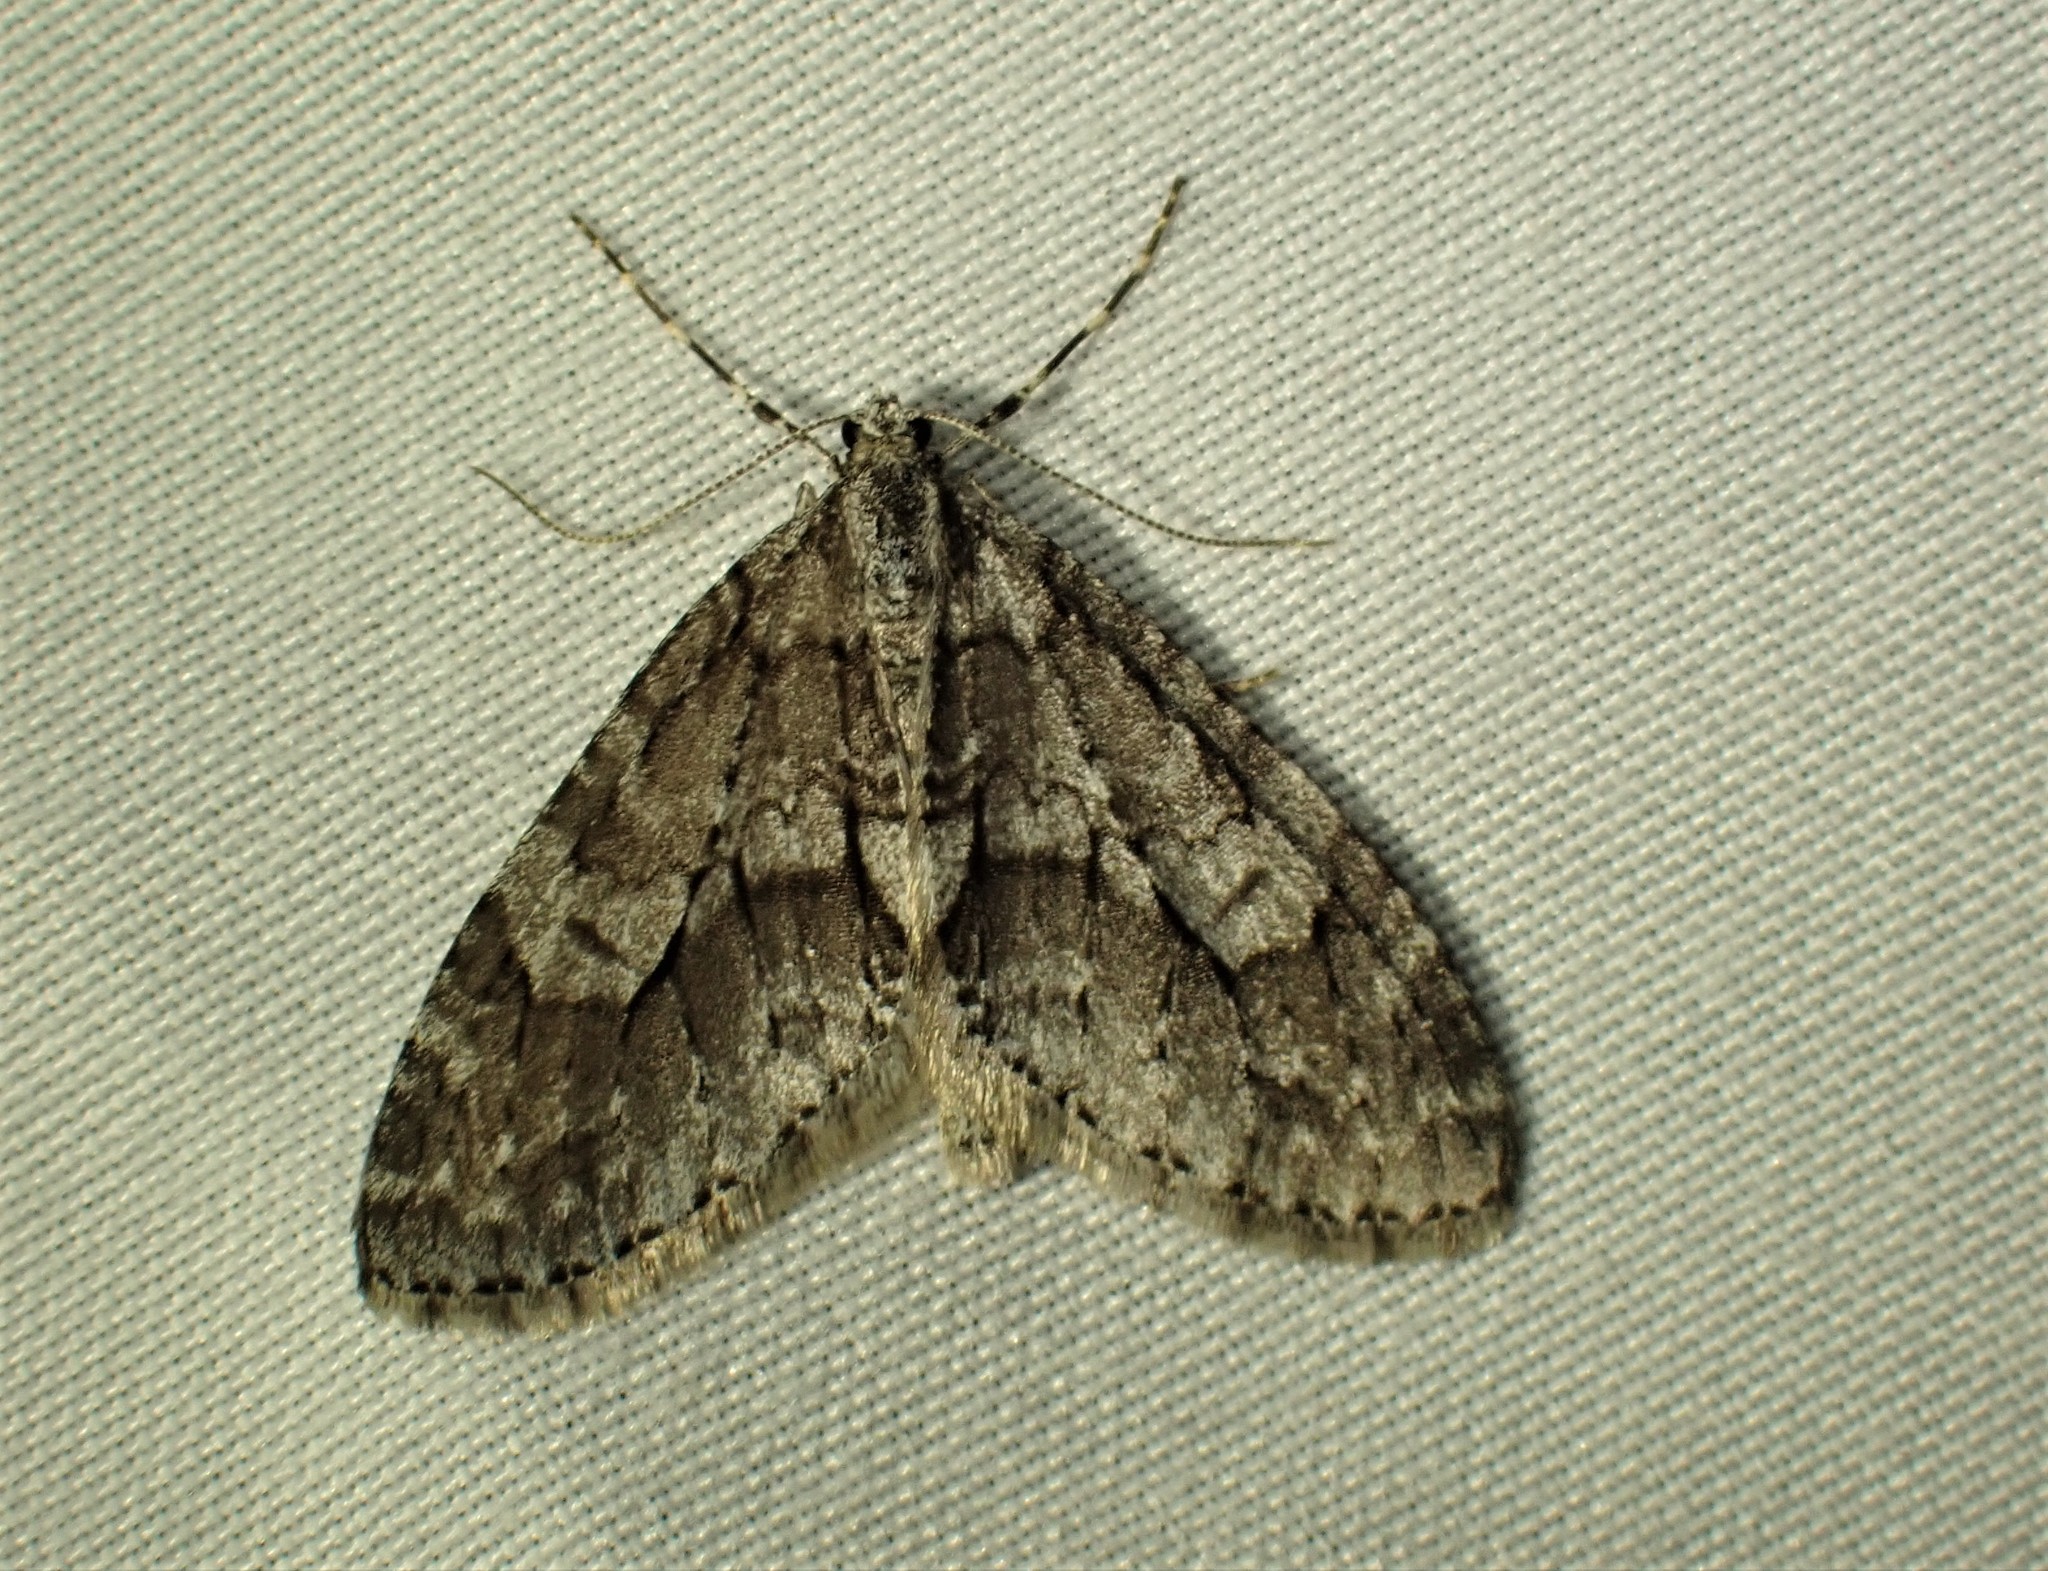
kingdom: Animalia
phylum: Arthropoda
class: Insecta
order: Lepidoptera
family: Geometridae
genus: Cladara
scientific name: Cladara limitaria
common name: Mottled gray carpet
